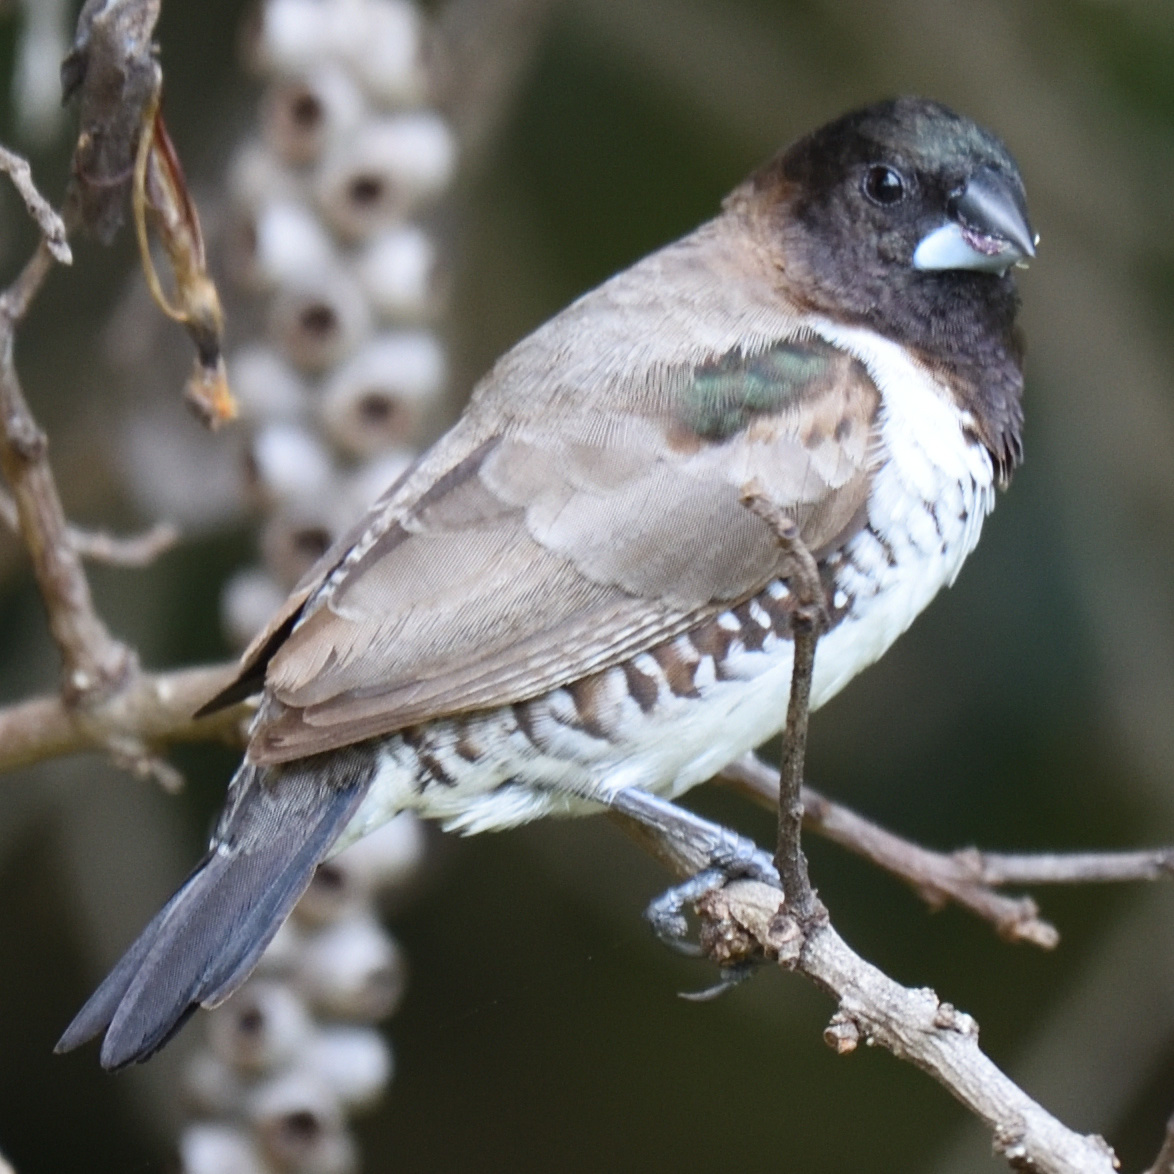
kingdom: Animalia
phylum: Chordata
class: Aves
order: Passeriformes
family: Estrildidae
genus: Lonchura
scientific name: Lonchura cucullata
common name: Bronze mannikin
